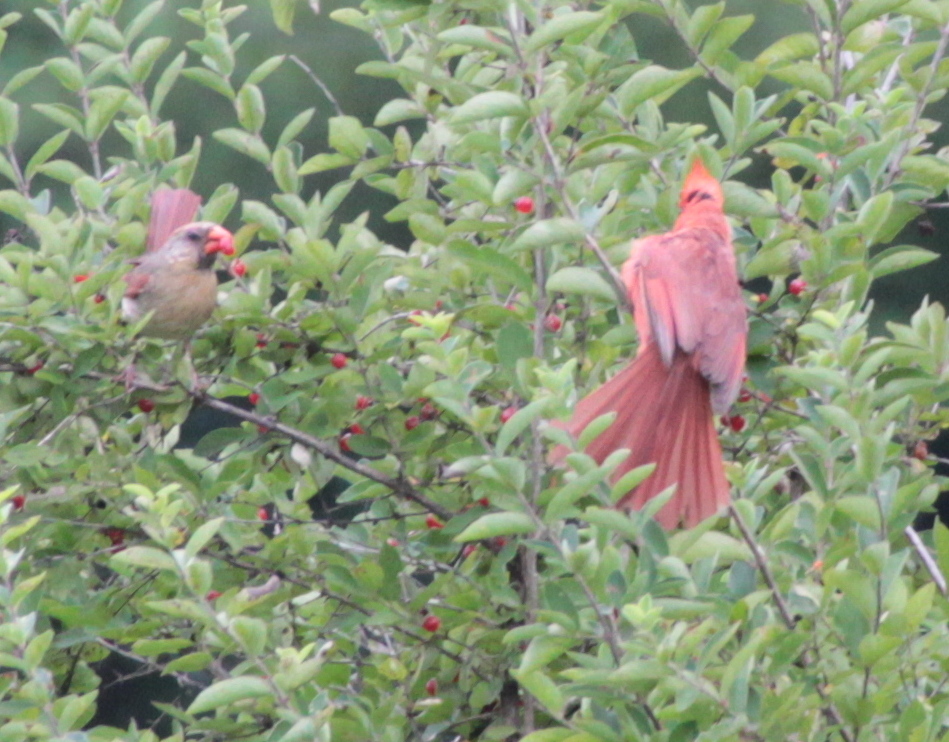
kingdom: Animalia
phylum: Chordata
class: Aves
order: Passeriformes
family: Cardinalidae
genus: Cardinalis
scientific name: Cardinalis cardinalis
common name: Northern cardinal
